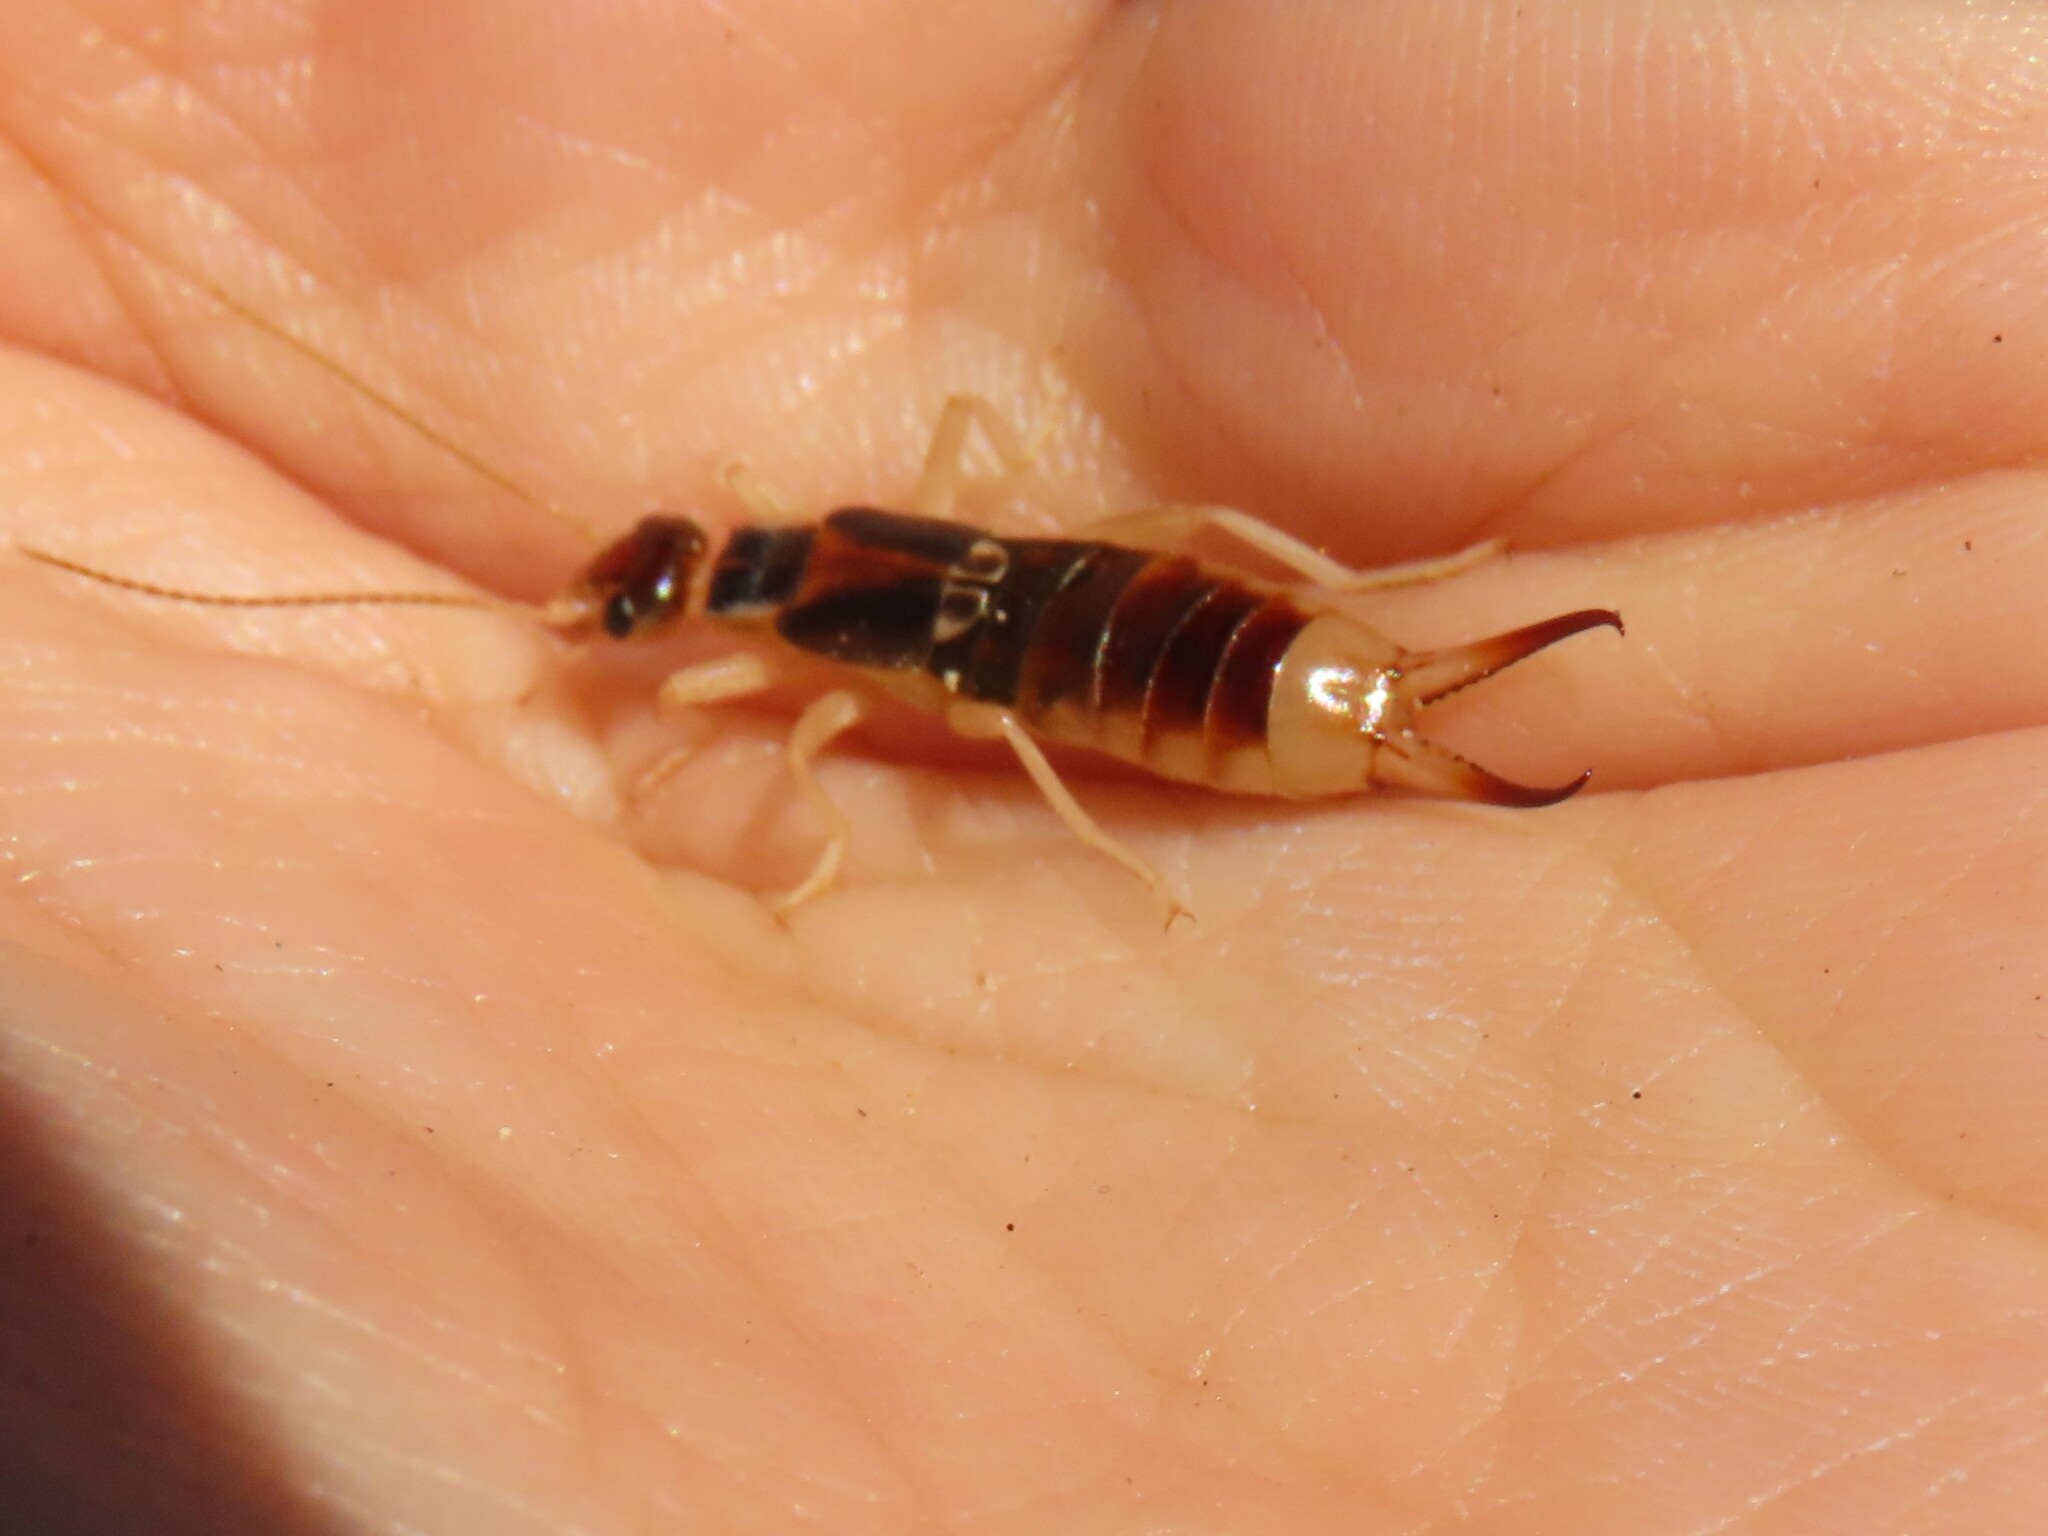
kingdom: Animalia
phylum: Arthropoda
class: Insecta
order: Dermaptera
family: Labiduridae
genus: Labidura
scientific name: Labidura riparia
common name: Striped earwig
